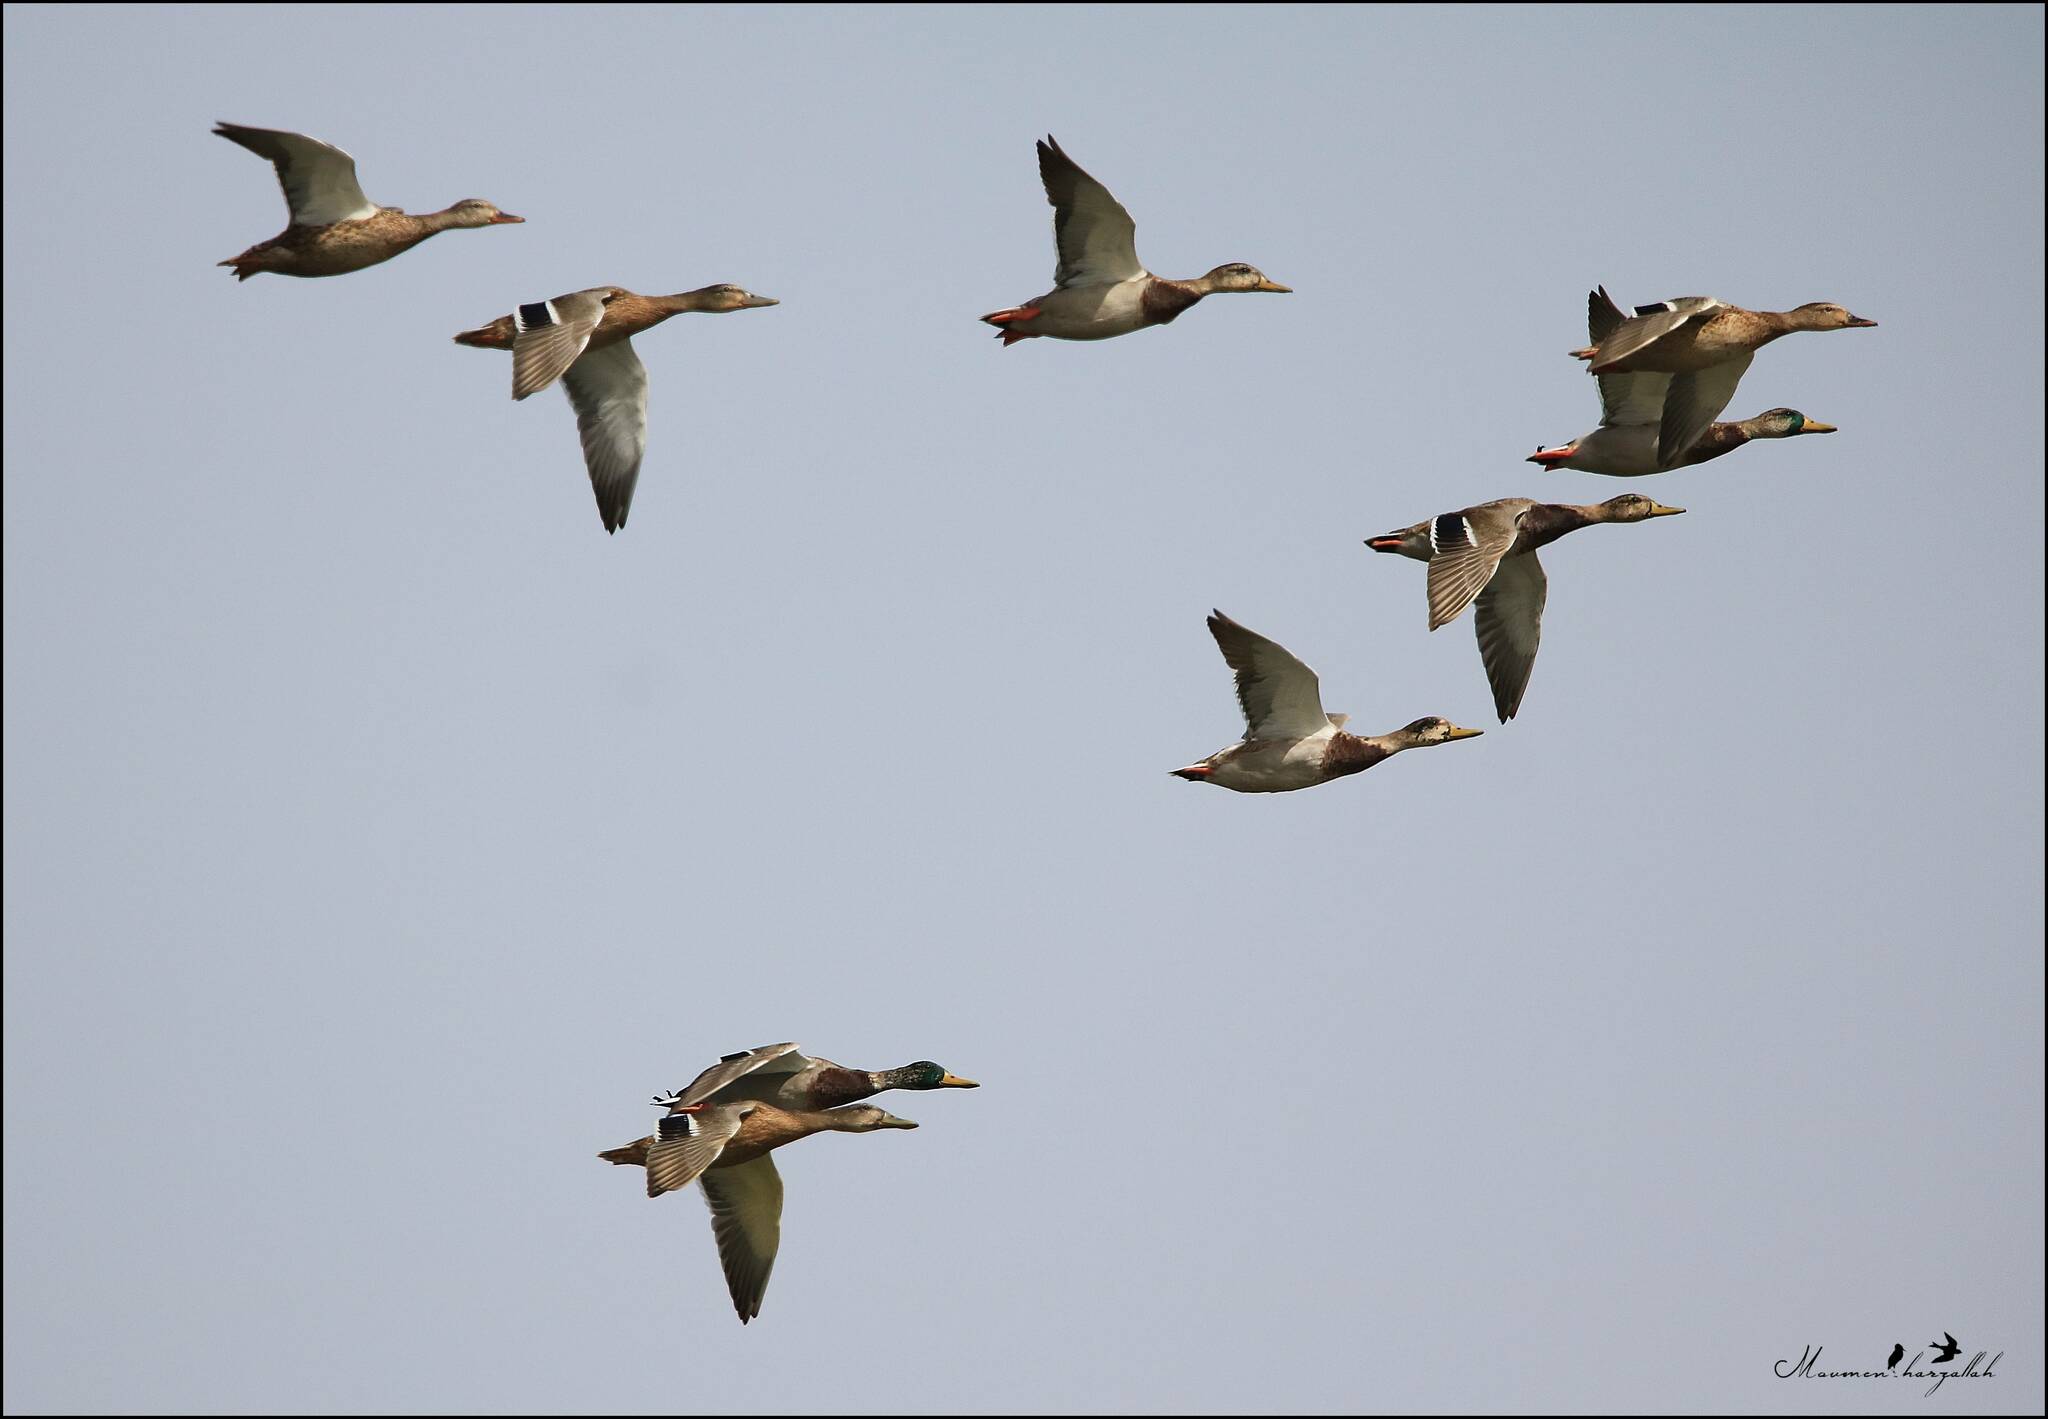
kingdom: Animalia
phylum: Chordata
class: Aves
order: Anseriformes
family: Anatidae
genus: Anas
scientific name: Anas platyrhynchos
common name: Mallard
